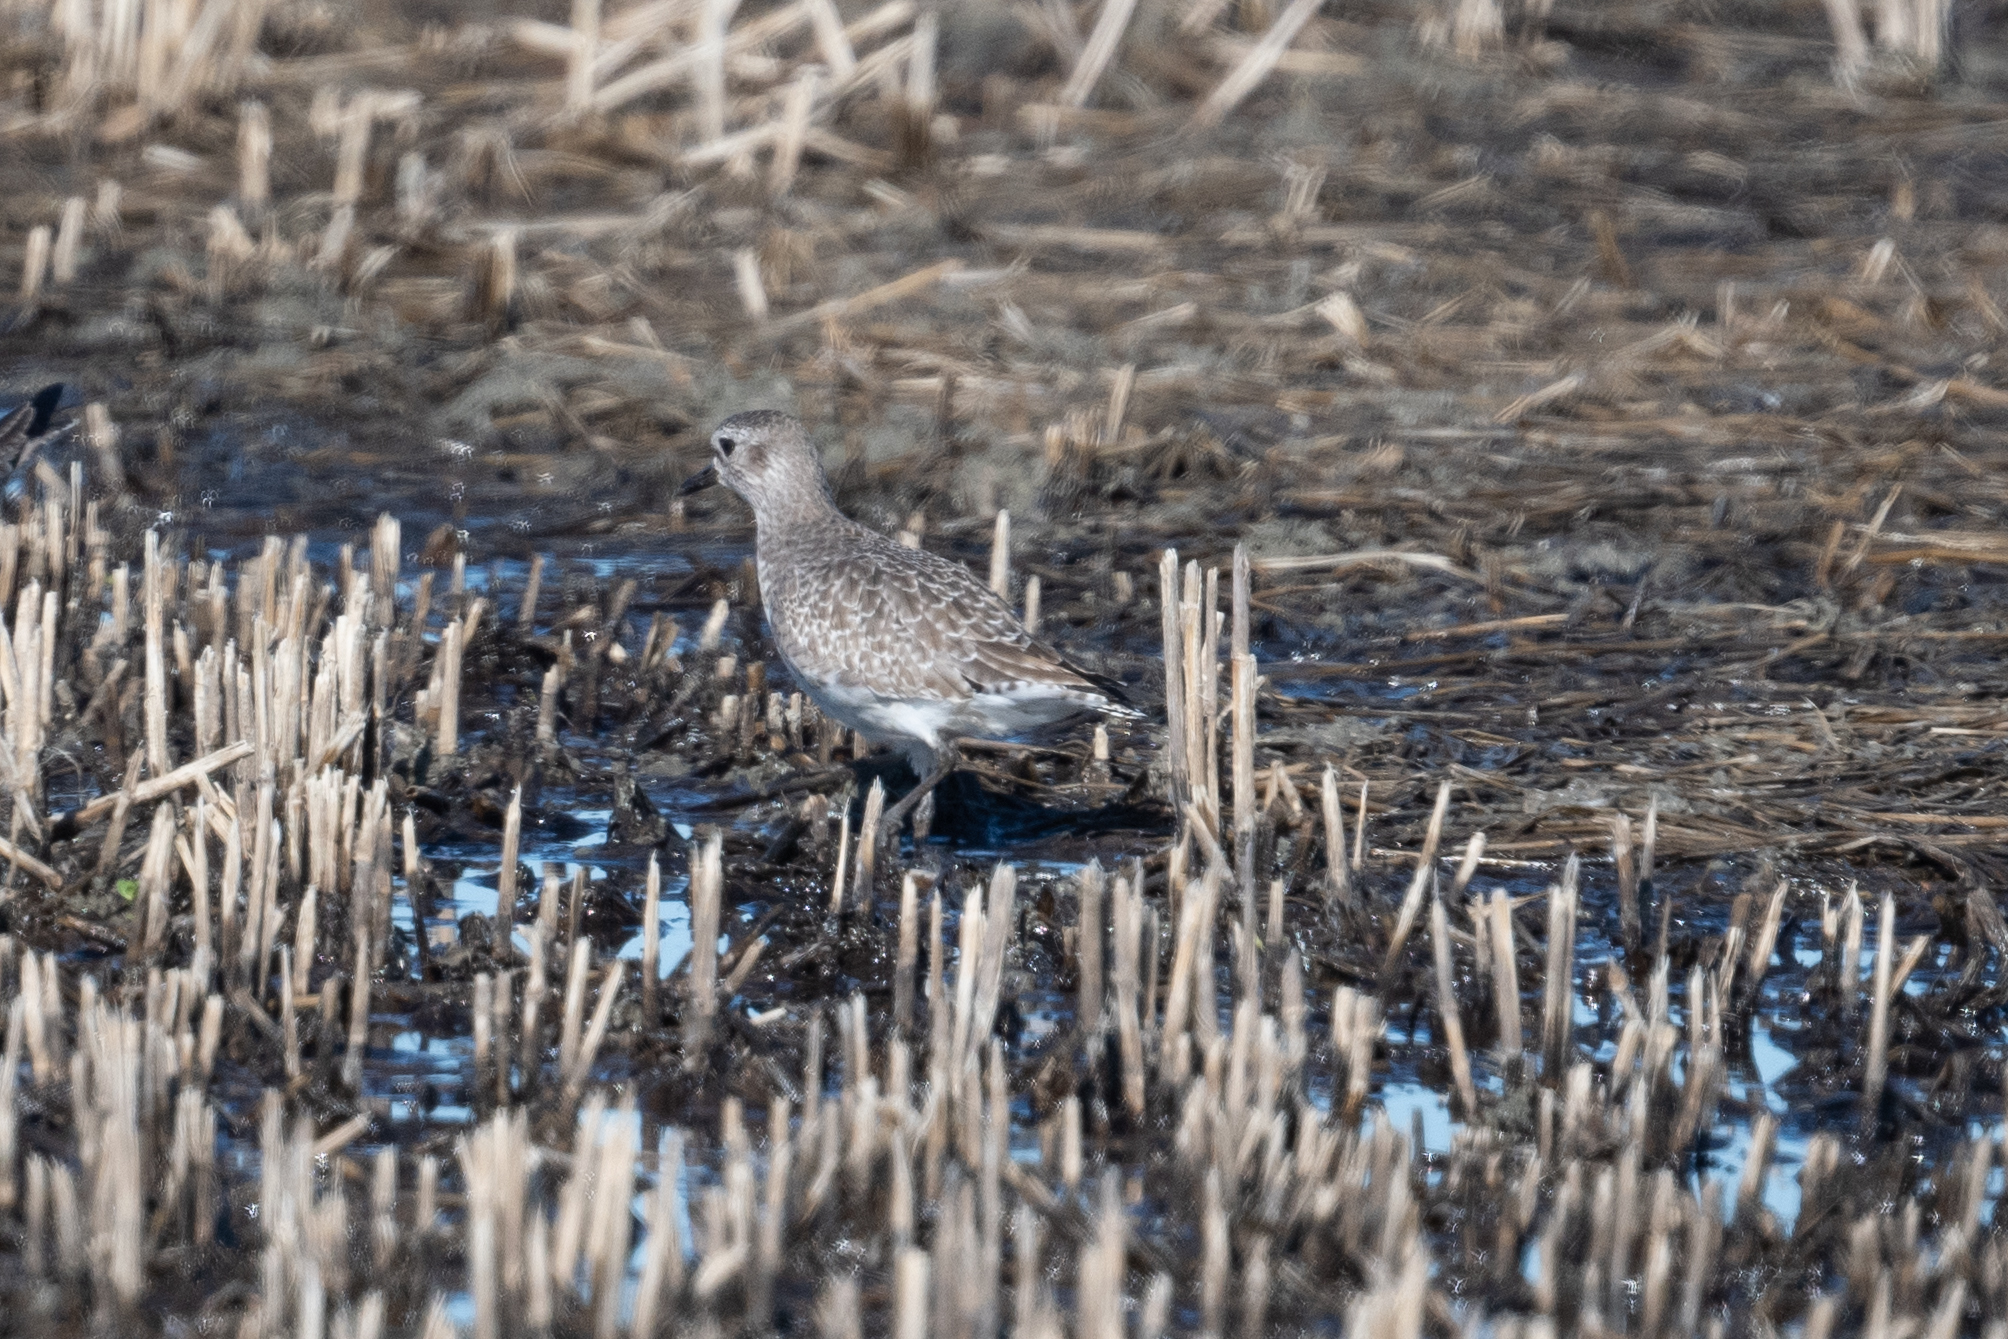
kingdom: Animalia
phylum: Chordata
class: Aves
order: Charadriiformes
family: Charadriidae
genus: Pluvialis
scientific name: Pluvialis squatarola
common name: Grey plover
